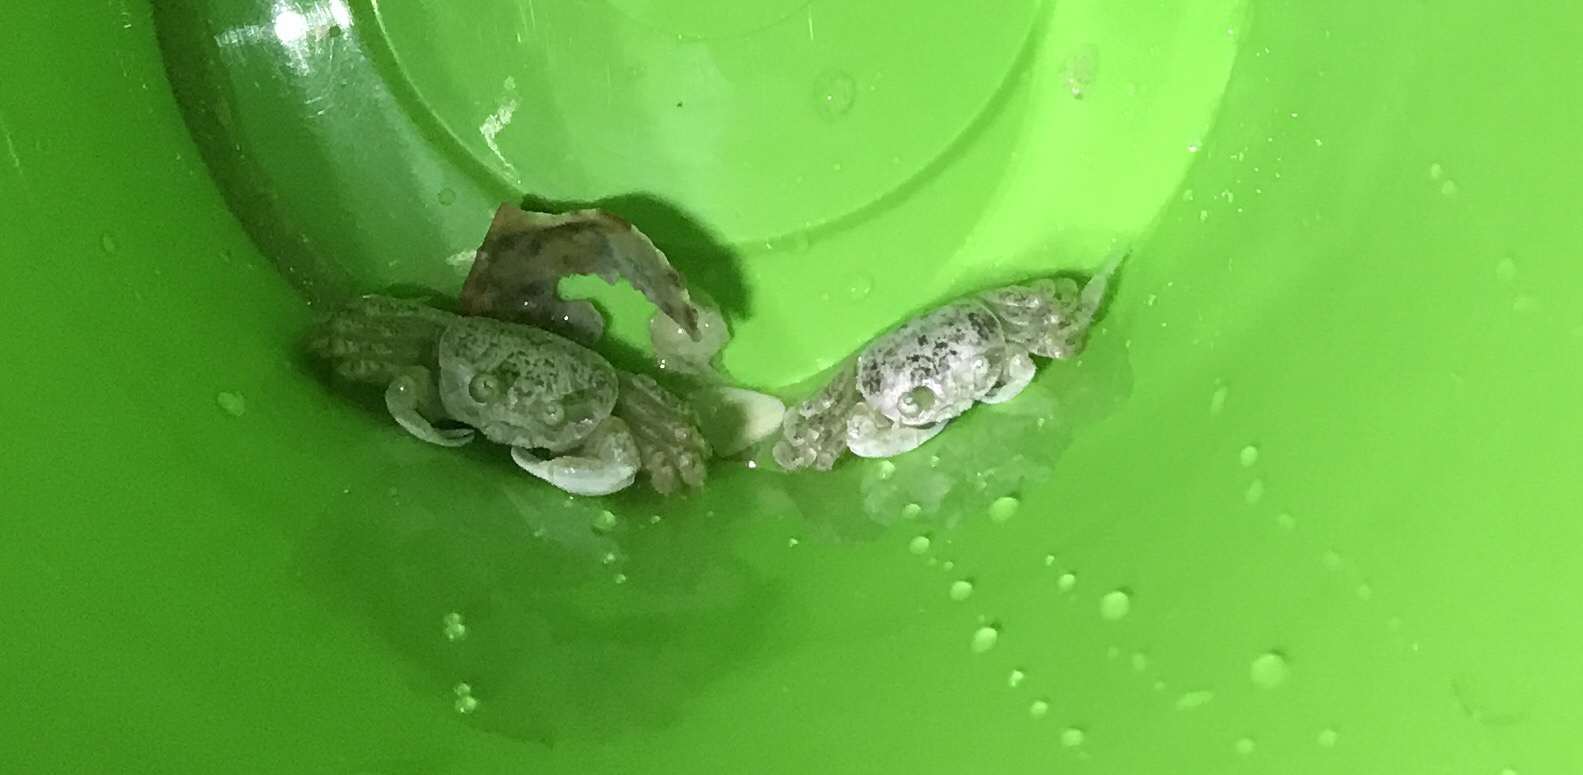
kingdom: Animalia
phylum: Arthropoda
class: Malacostraca
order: Decapoda
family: Ocypodidae
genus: Ocypode
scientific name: Ocypode quadrata
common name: Ghost crab
